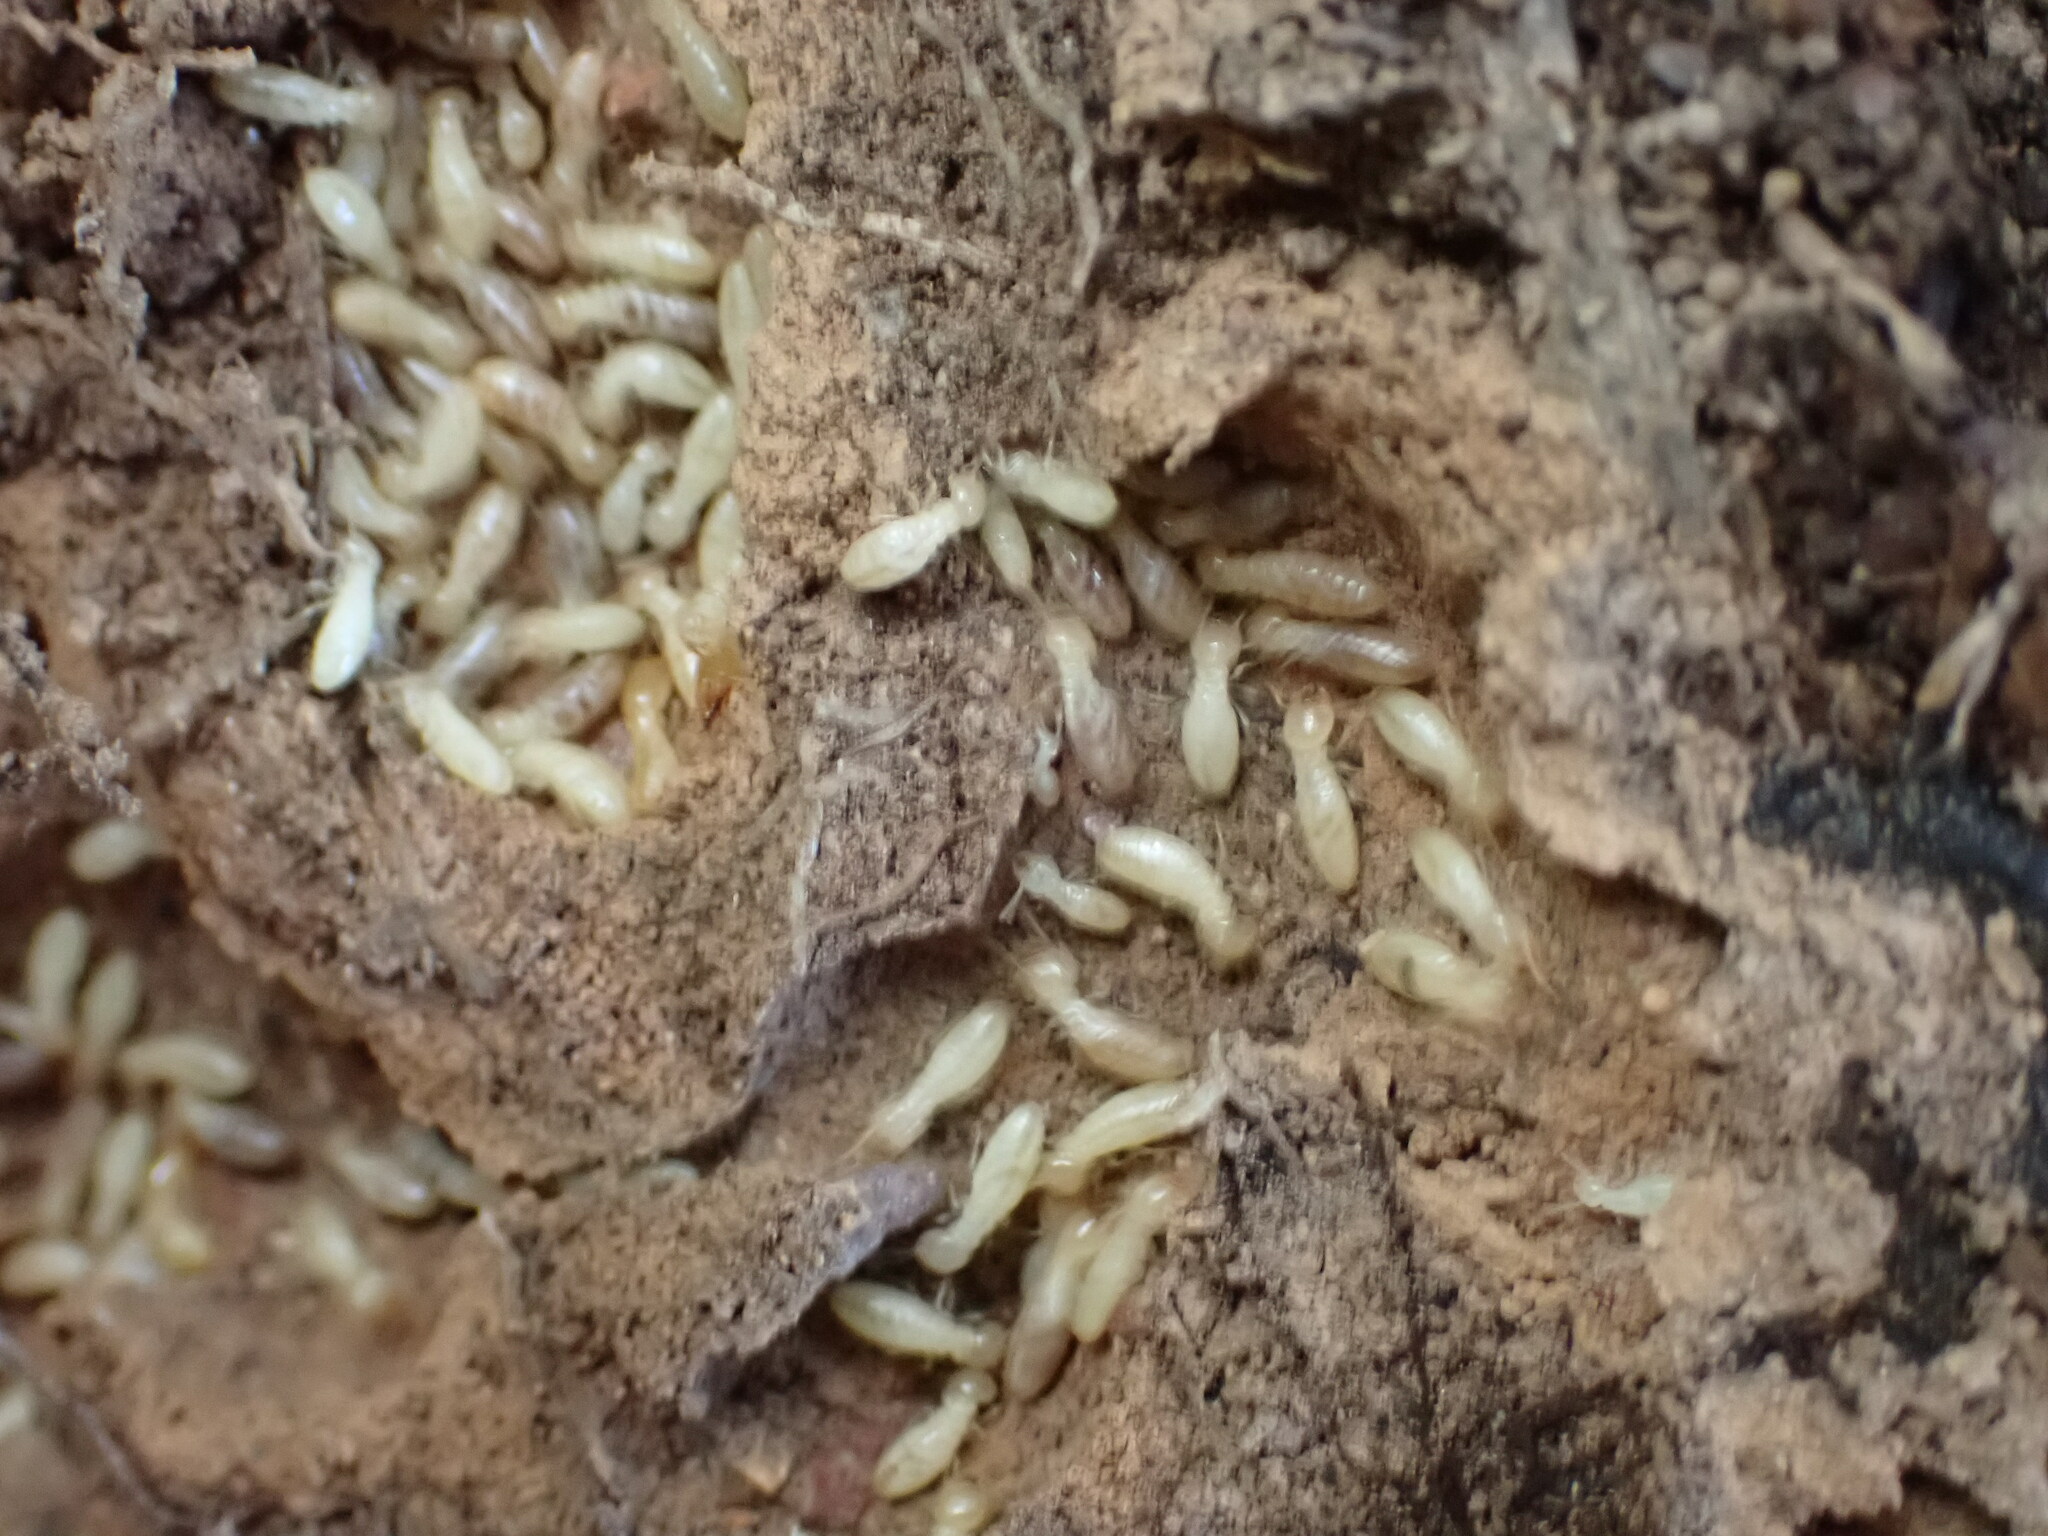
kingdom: Animalia
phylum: Arthropoda
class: Insecta
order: Blattodea
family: Rhinotermitidae
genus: Reticulitermes
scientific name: Reticulitermes flavipes
